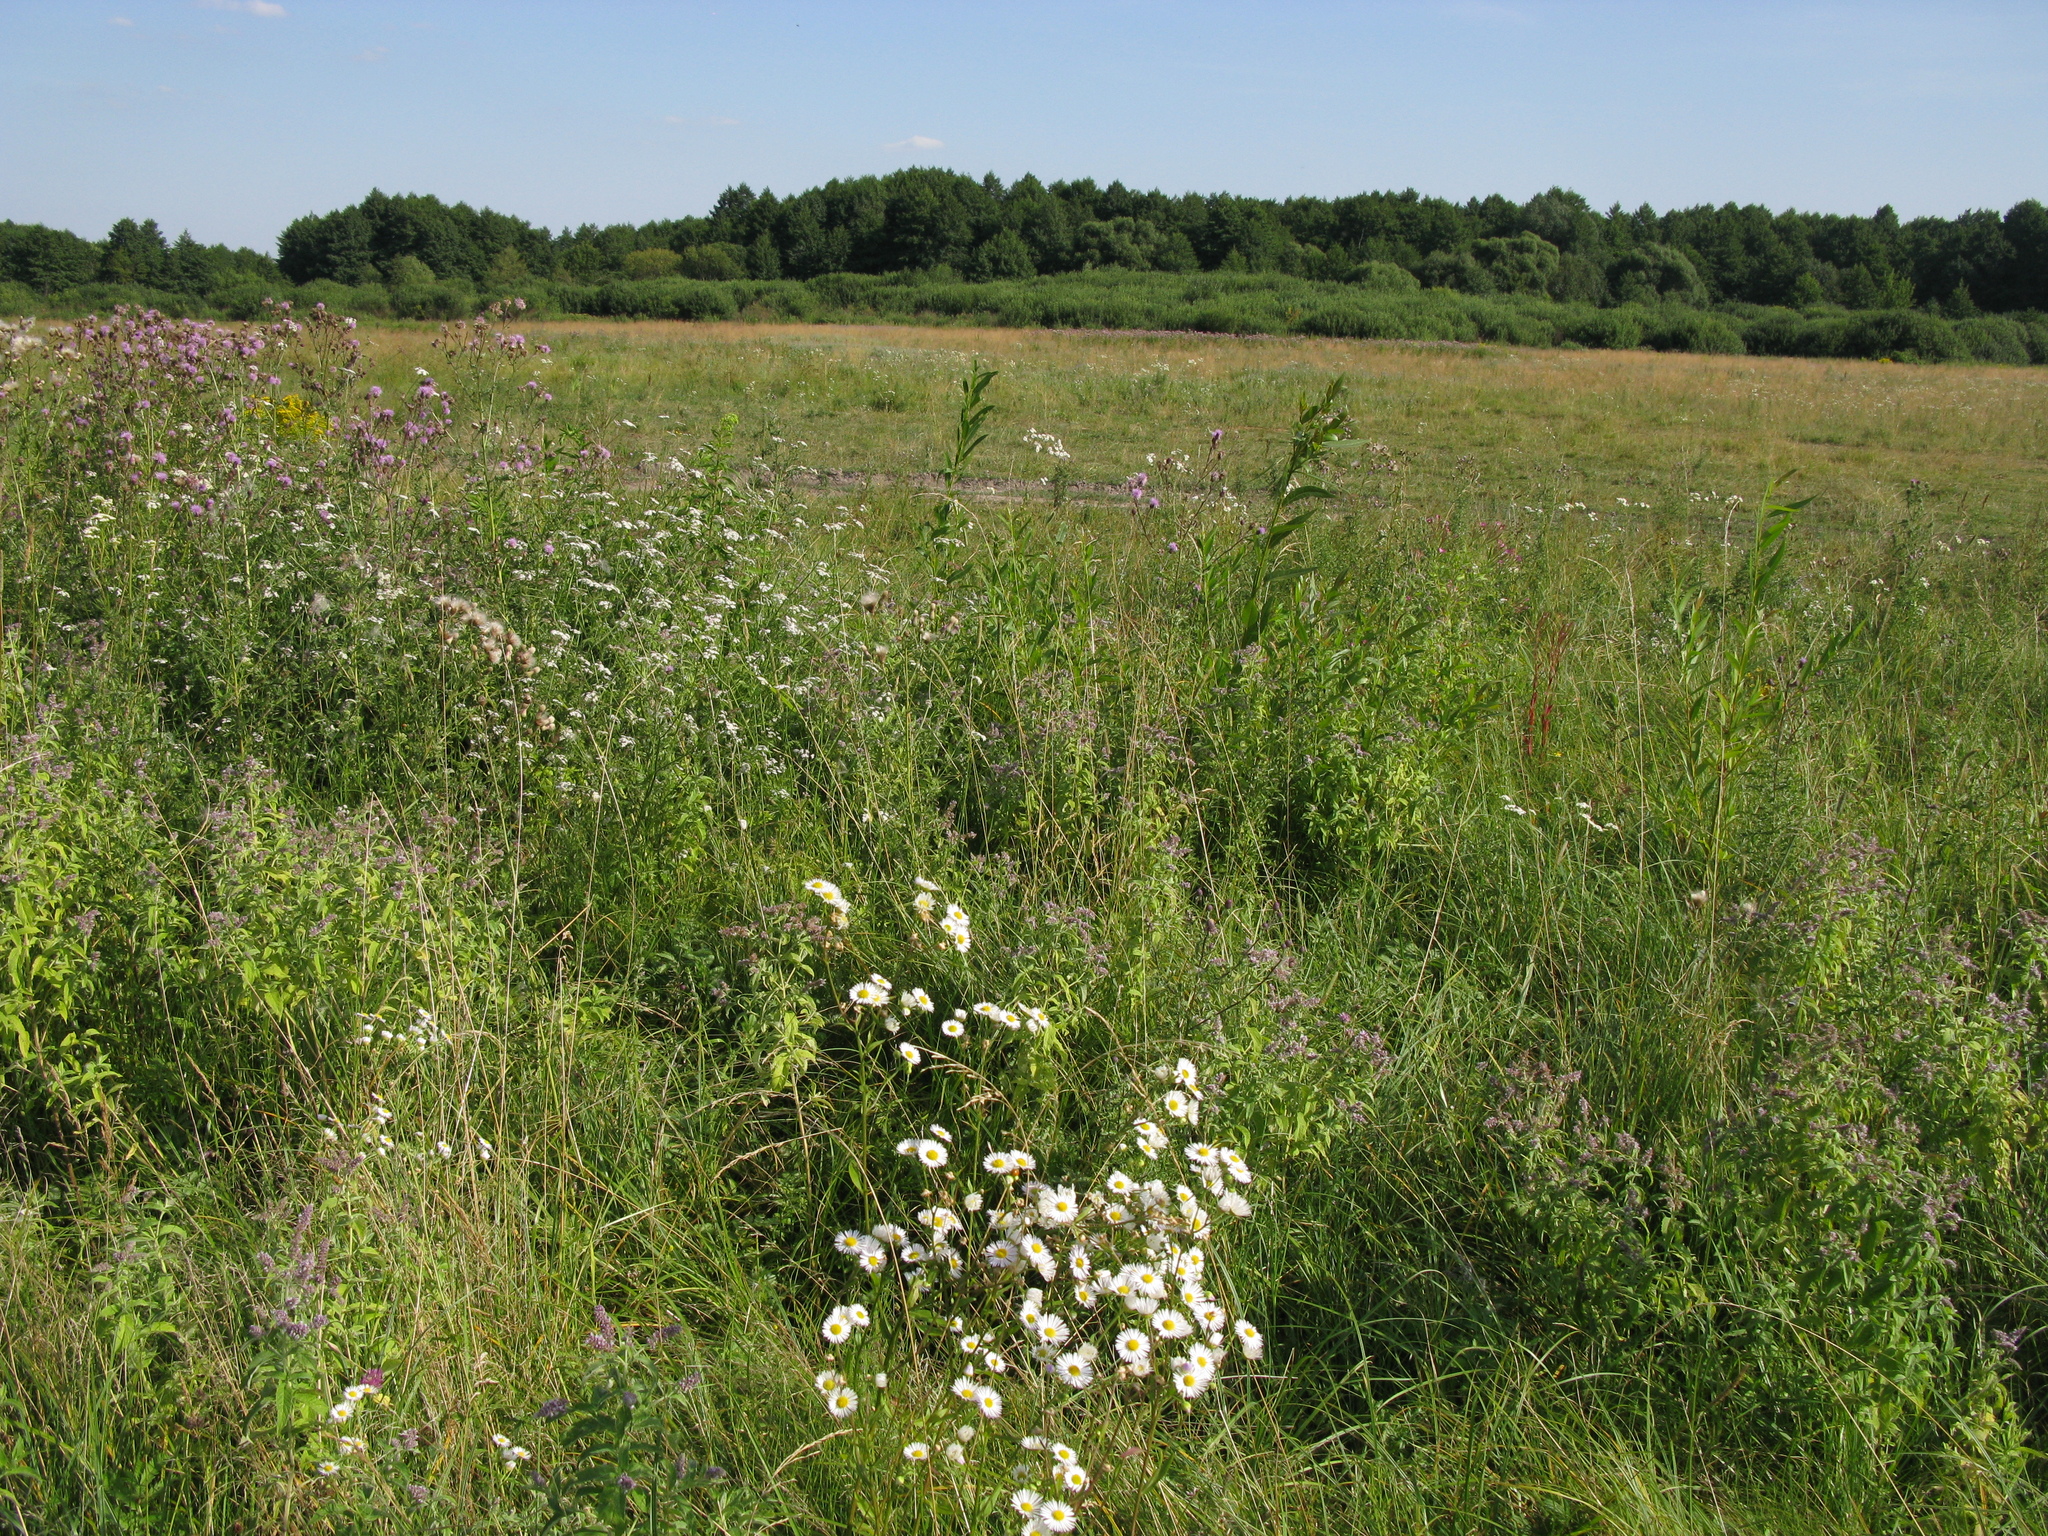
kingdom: Plantae
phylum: Tracheophyta
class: Magnoliopsida
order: Asterales
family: Asteraceae
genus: Cirsium
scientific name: Cirsium arvense
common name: Creeping thistle
